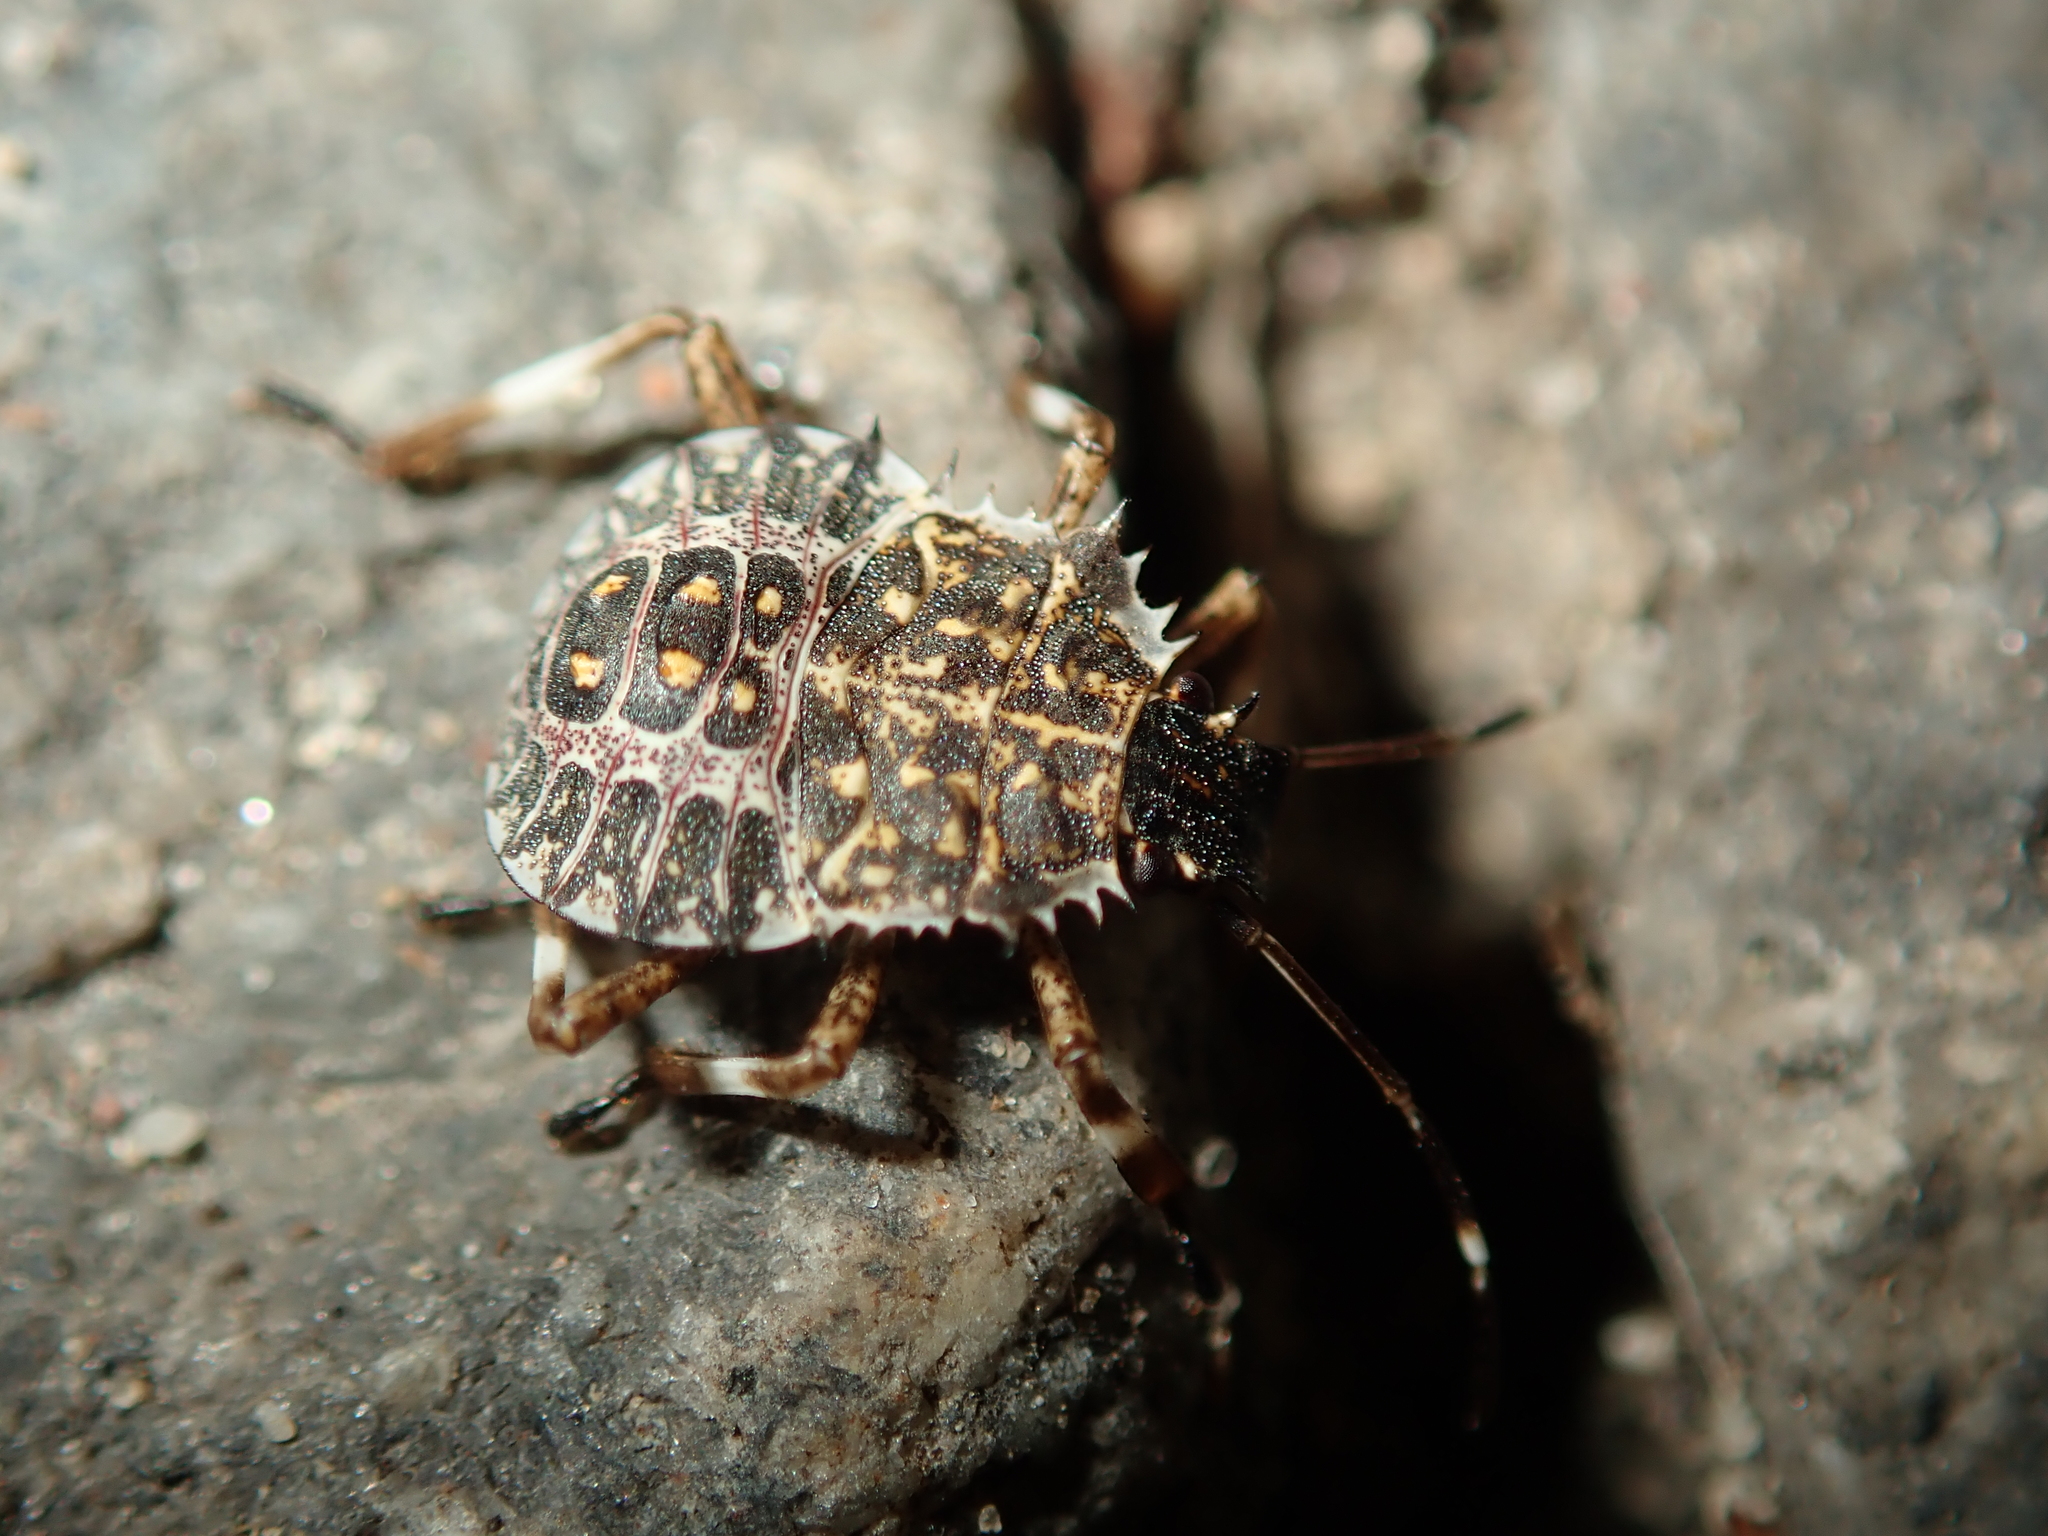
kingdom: Animalia
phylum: Arthropoda
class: Insecta
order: Hemiptera
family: Pentatomidae
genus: Halyomorpha
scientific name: Halyomorpha halys
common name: Brown marmorated stink bug
